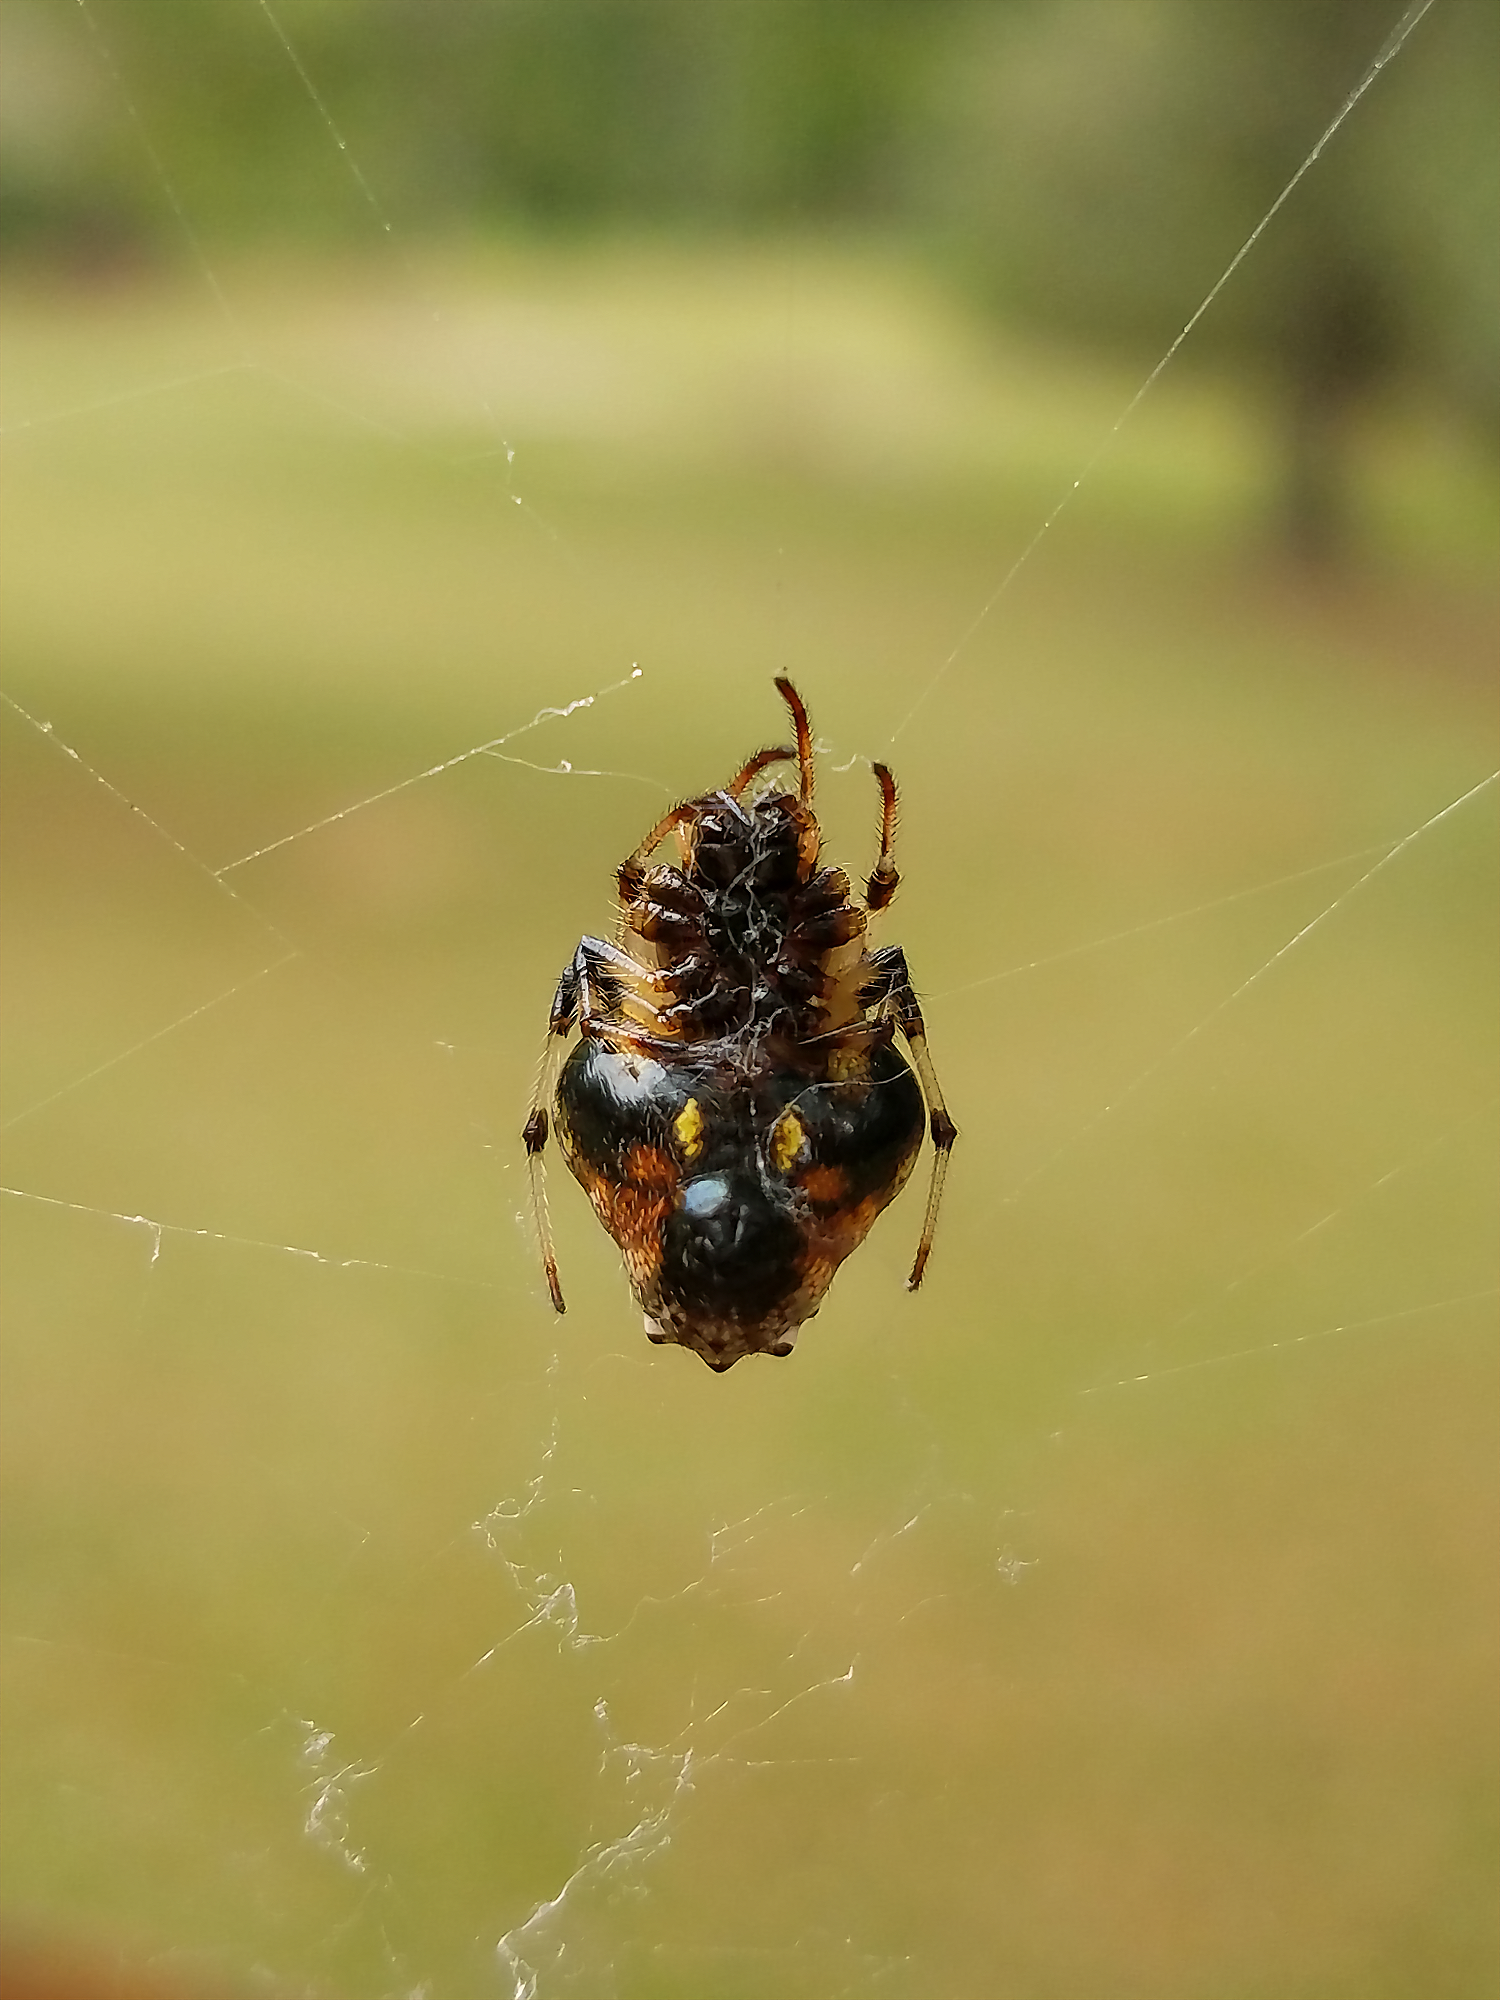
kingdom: Animalia
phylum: Arthropoda
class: Arachnida
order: Araneae
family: Araneidae
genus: Verrucosa
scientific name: Verrucosa arenata
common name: Orb weavers
